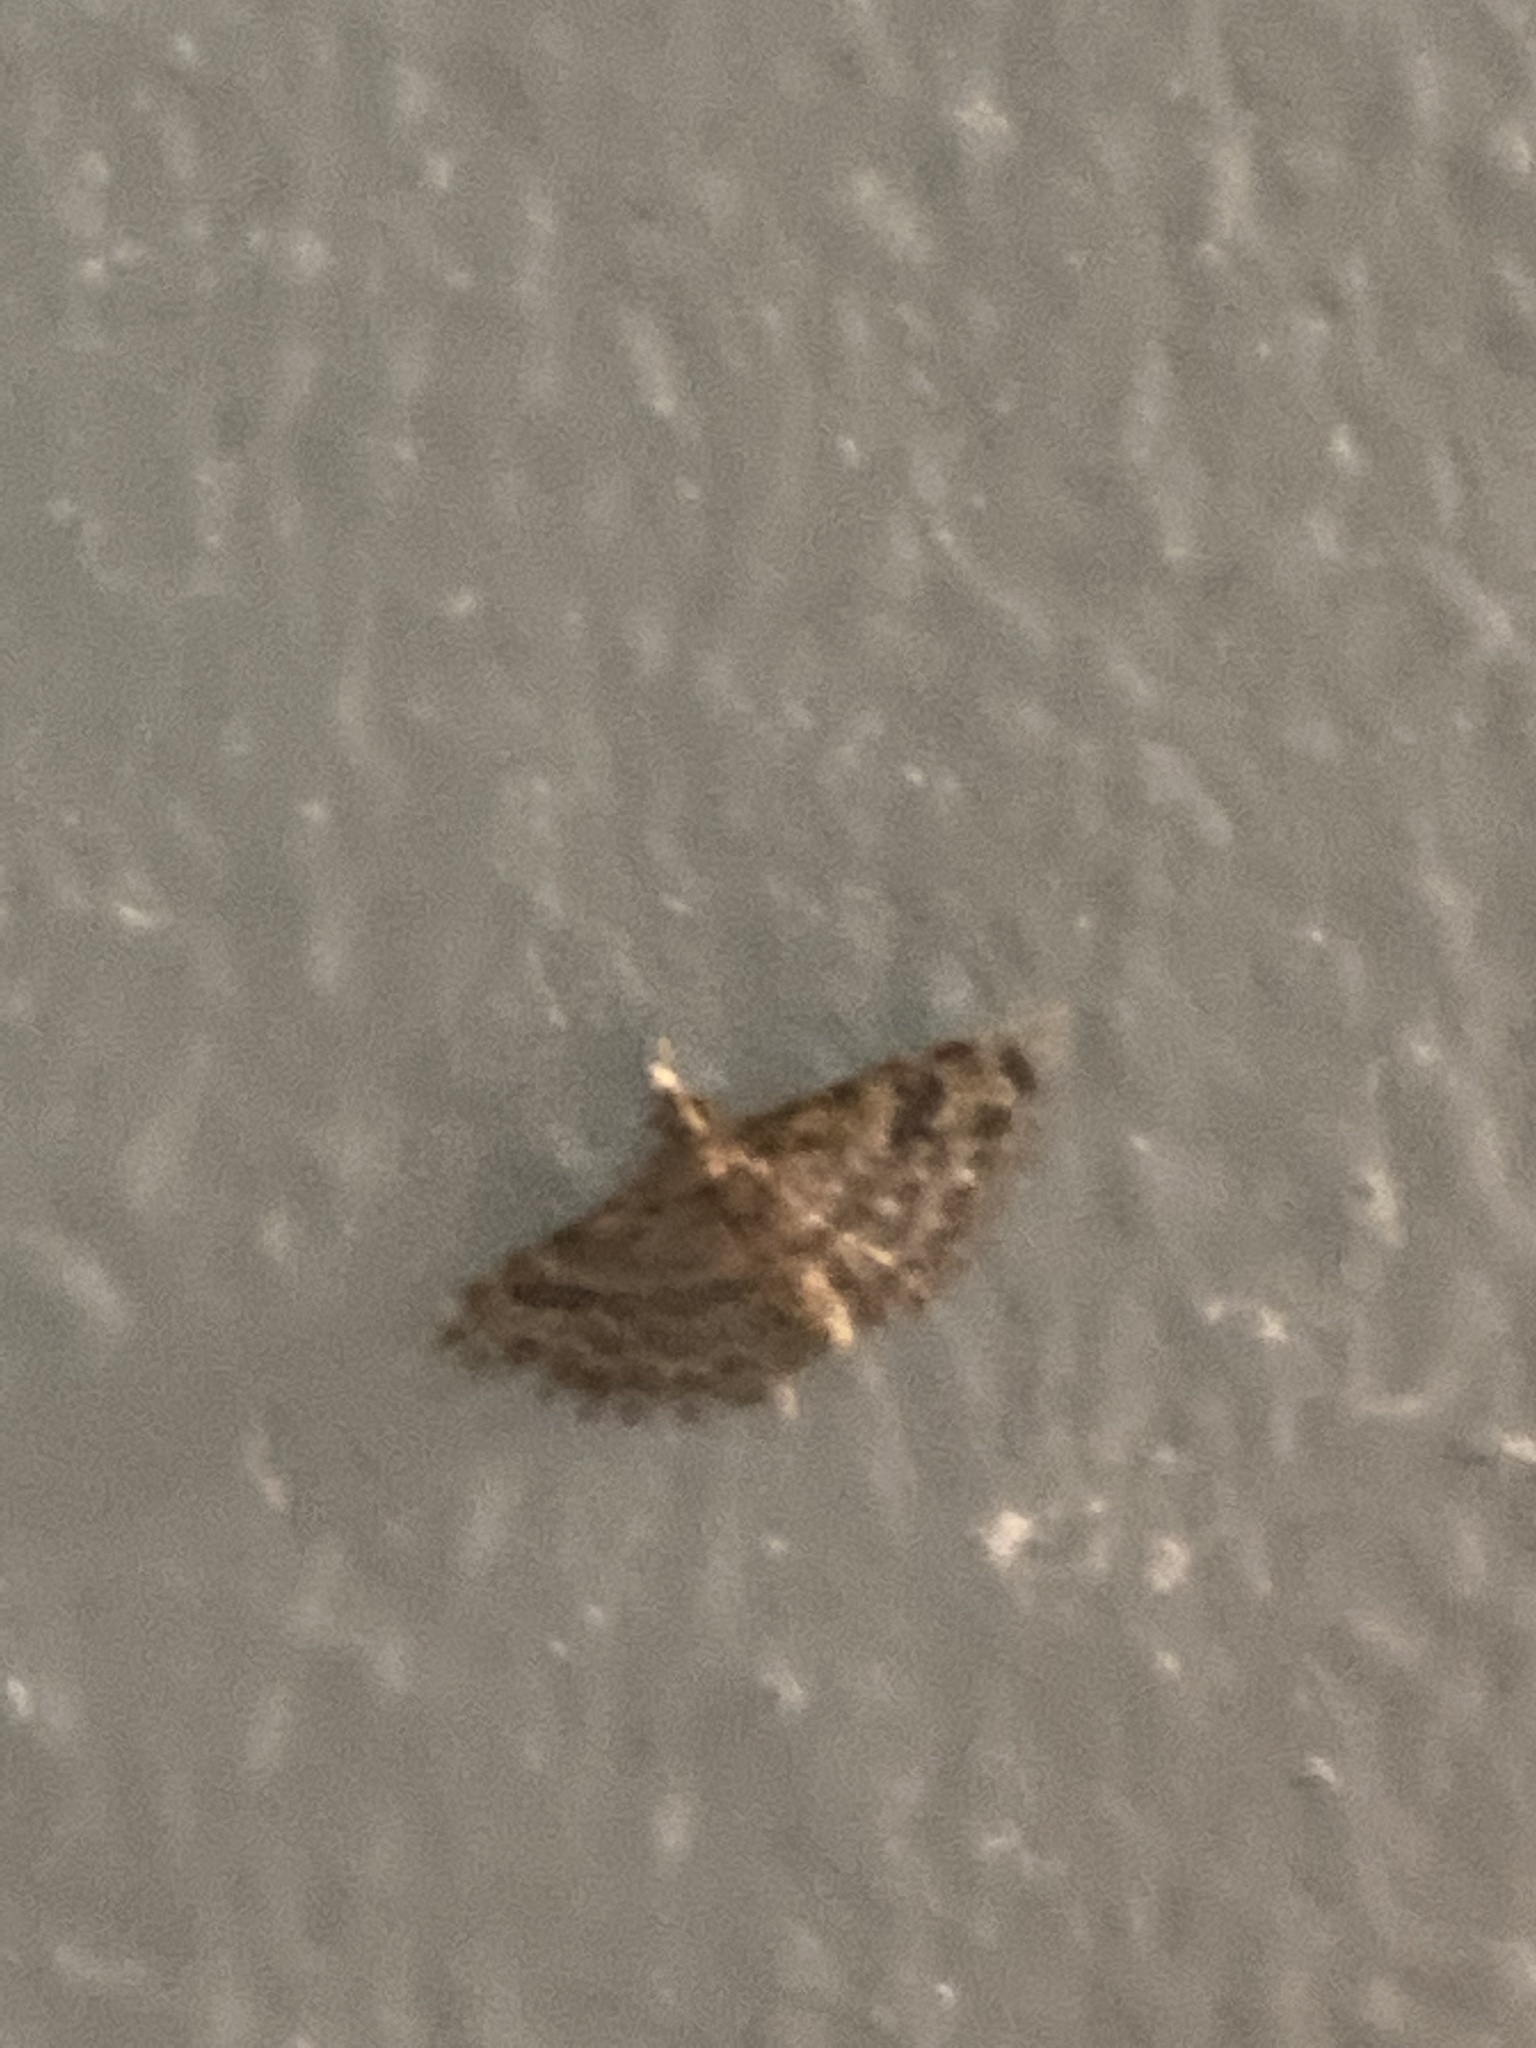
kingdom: Animalia
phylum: Arthropoda
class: Insecta
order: Lepidoptera
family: Alucitidae
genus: Alucita
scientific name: Alucita montana
